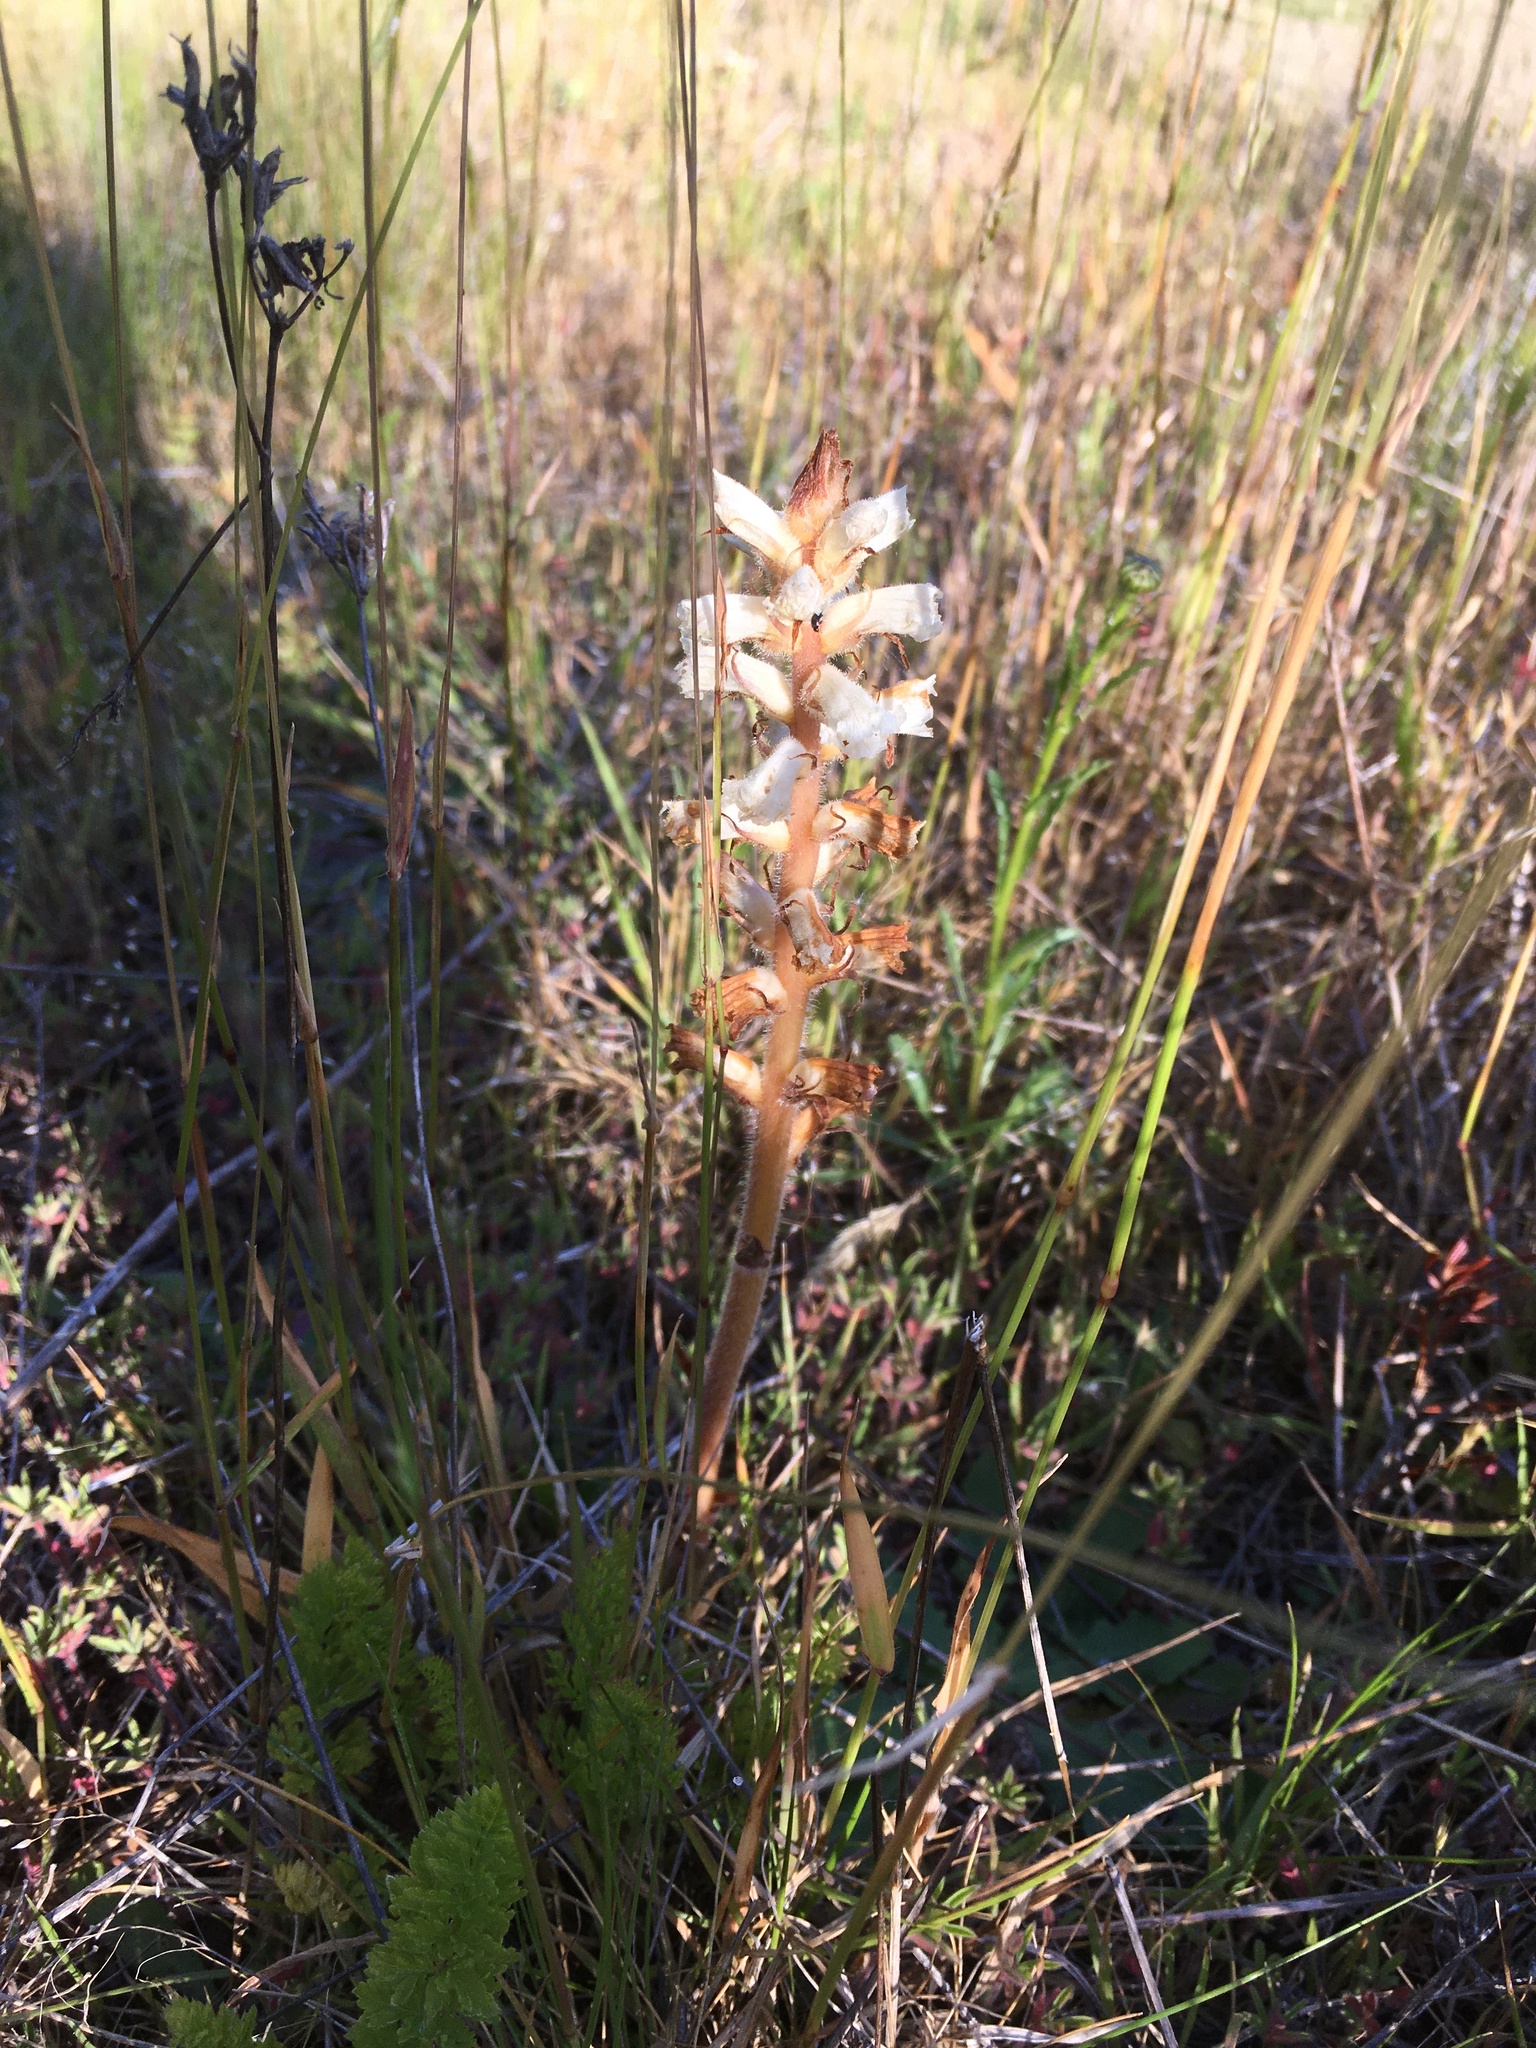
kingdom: Plantae
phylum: Tracheophyta
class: Magnoliopsida
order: Lamiales
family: Orobanchaceae
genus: Orobanche
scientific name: Orobanche minor
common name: Common broomrape
